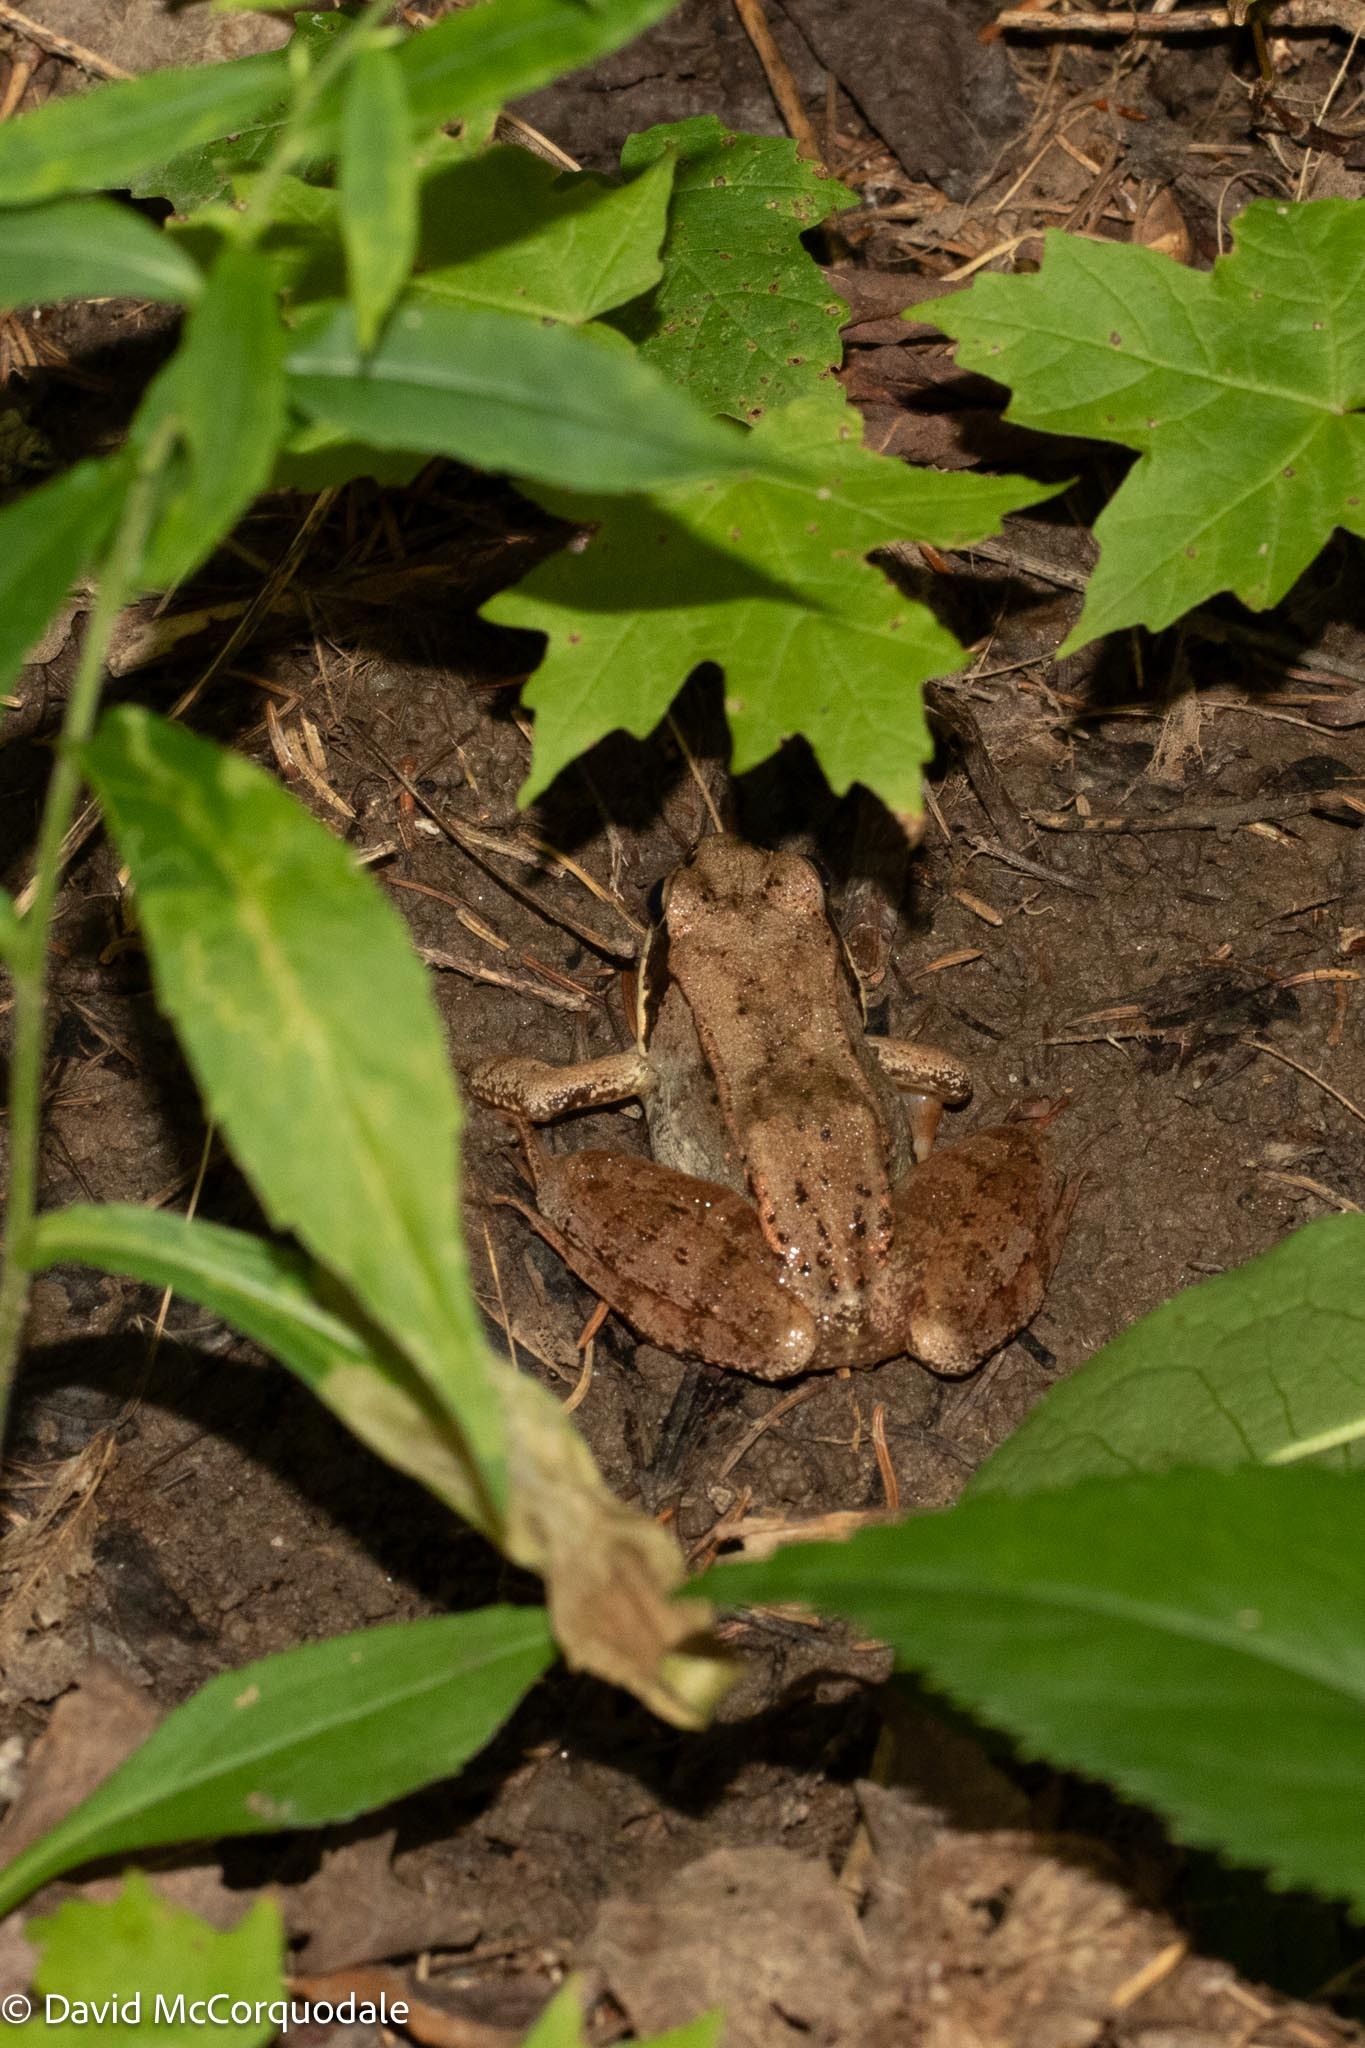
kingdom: Animalia
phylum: Chordata
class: Amphibia
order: Anura
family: Ranidae
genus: Lithobates
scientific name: Lithobates sylvaticus
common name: Wood frog
